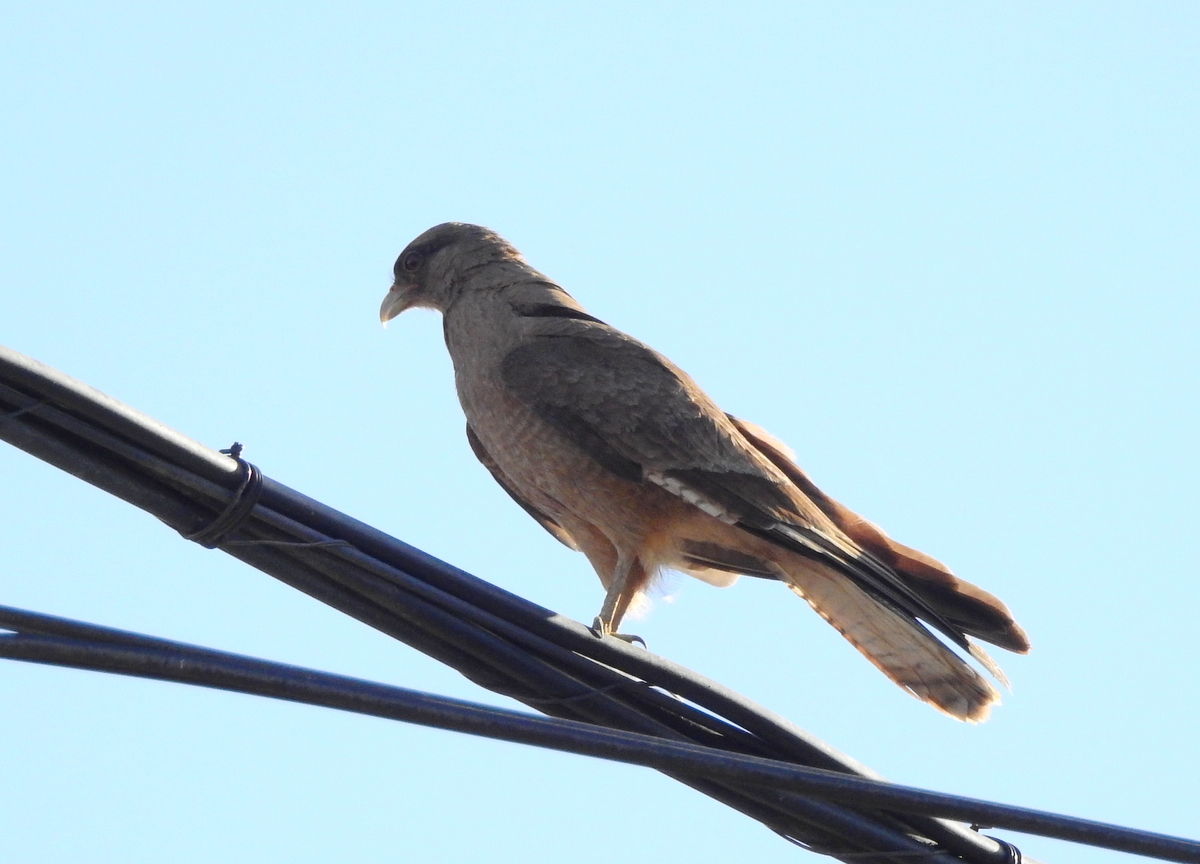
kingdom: Animalia
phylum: Chordata
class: Aves
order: Falconiformes
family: Falconidae
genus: Daptrius
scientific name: Daptrius
